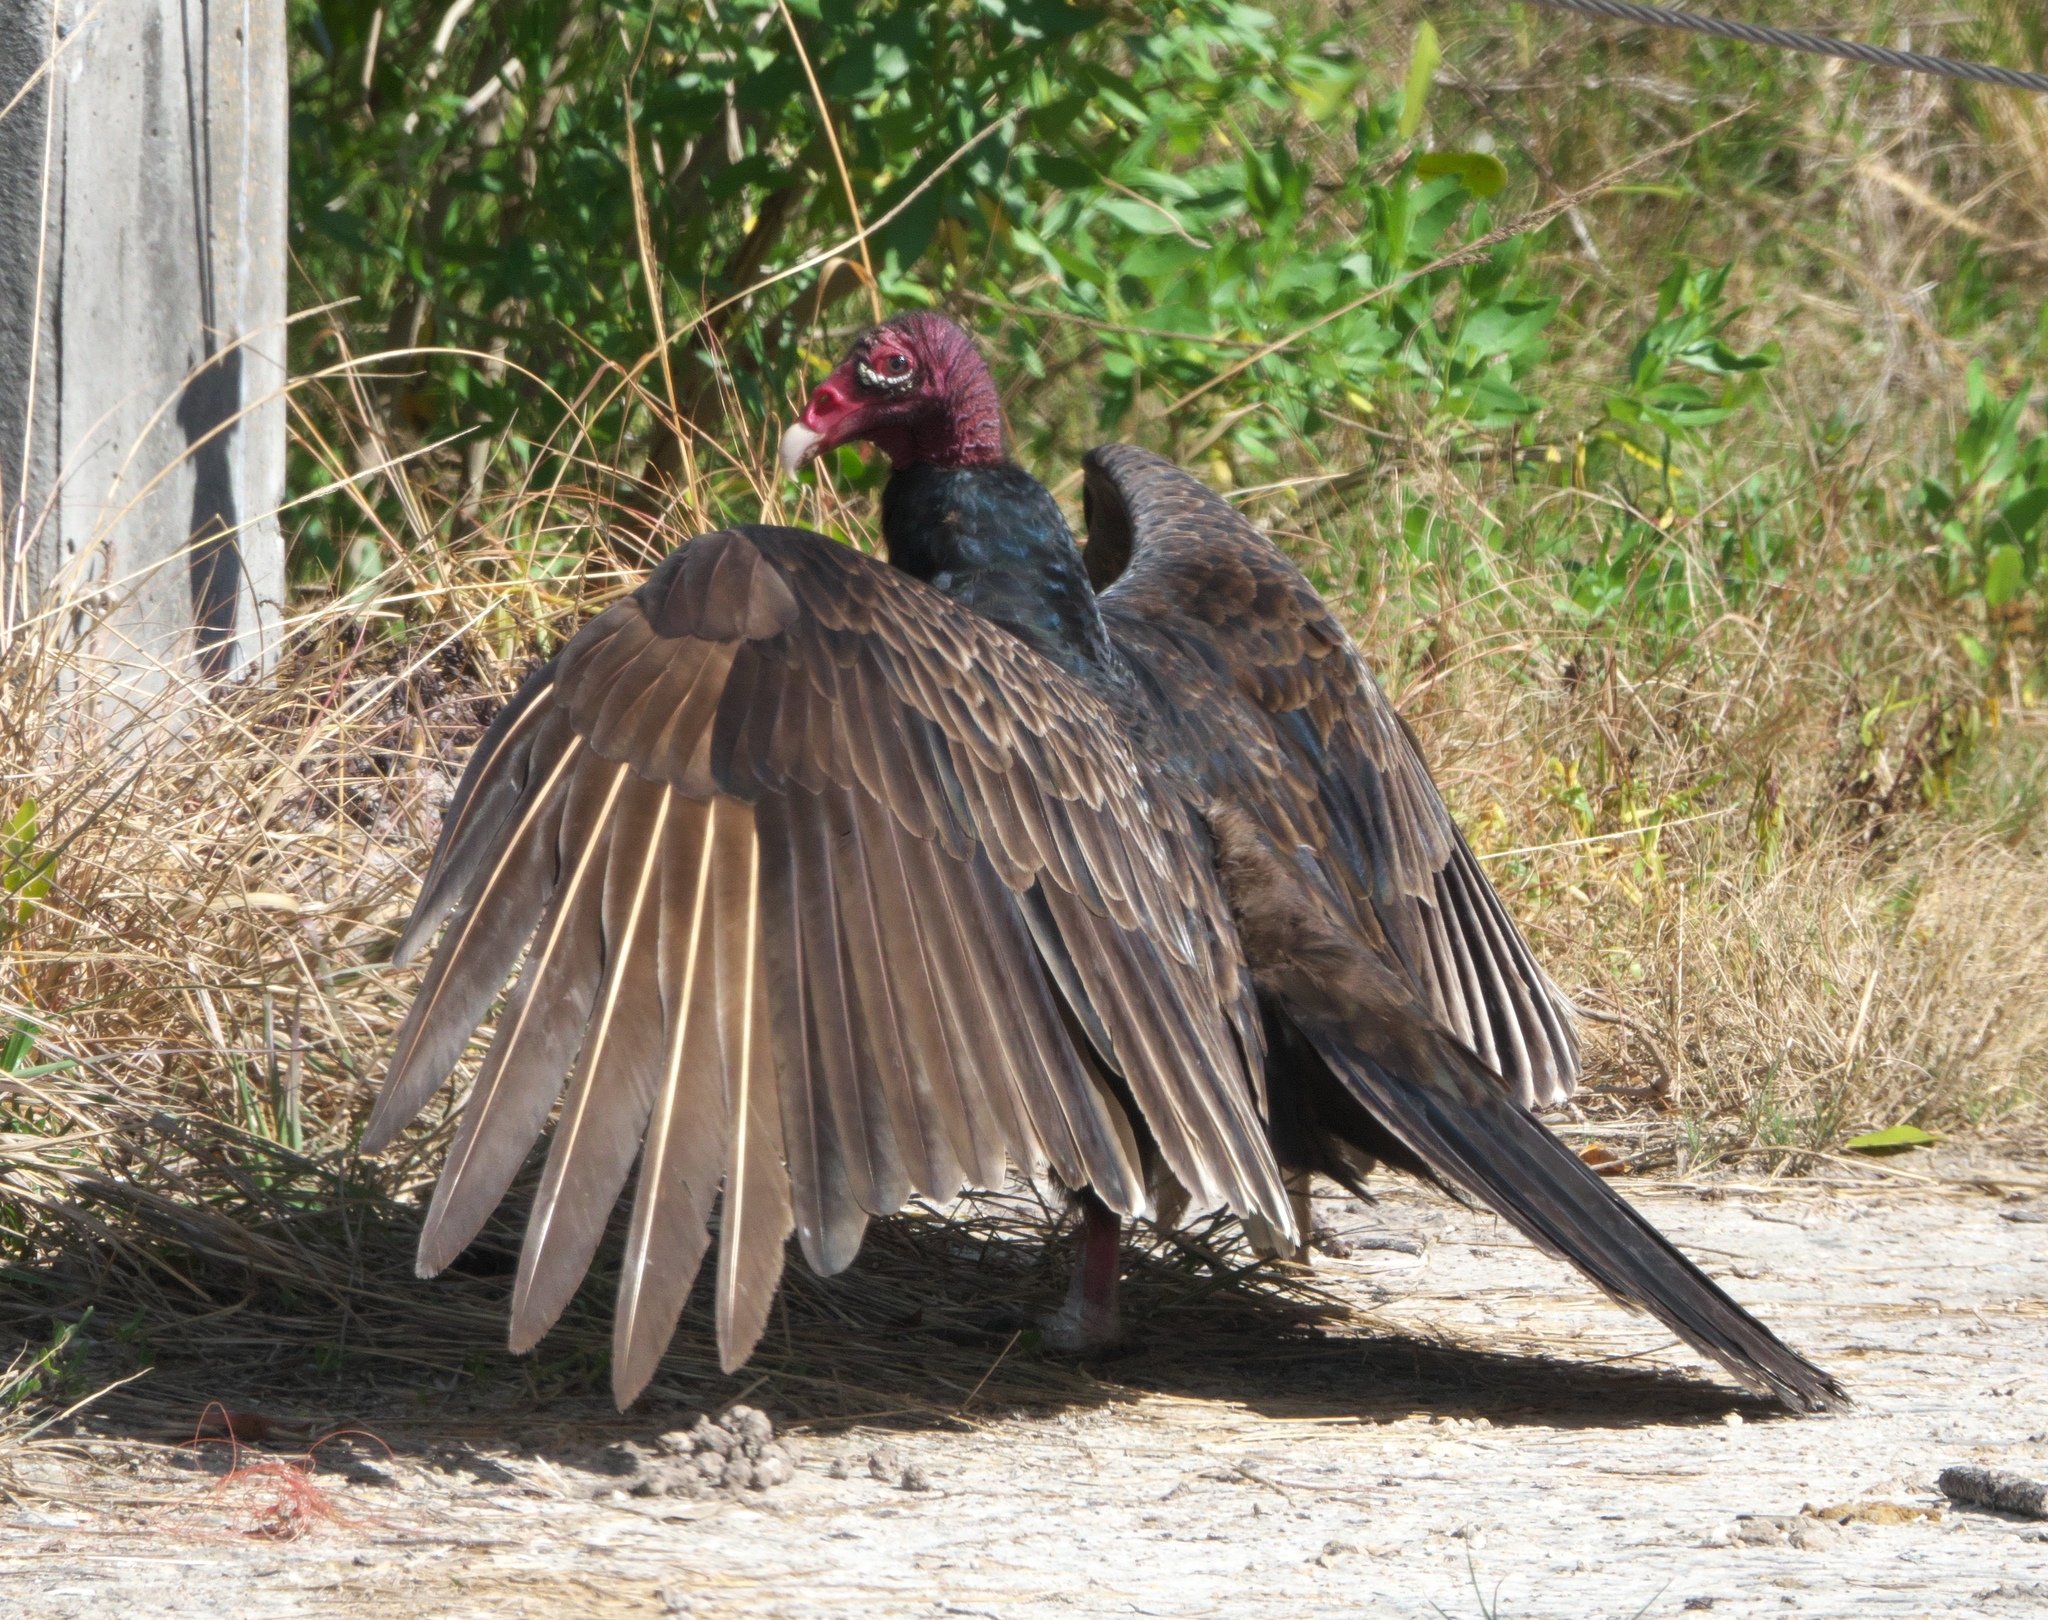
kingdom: Animalia
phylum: Chordata
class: Aves
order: Accipitriformes
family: Cathartidae
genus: Cathartes
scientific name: Cathartes aura
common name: Turkey vulture
